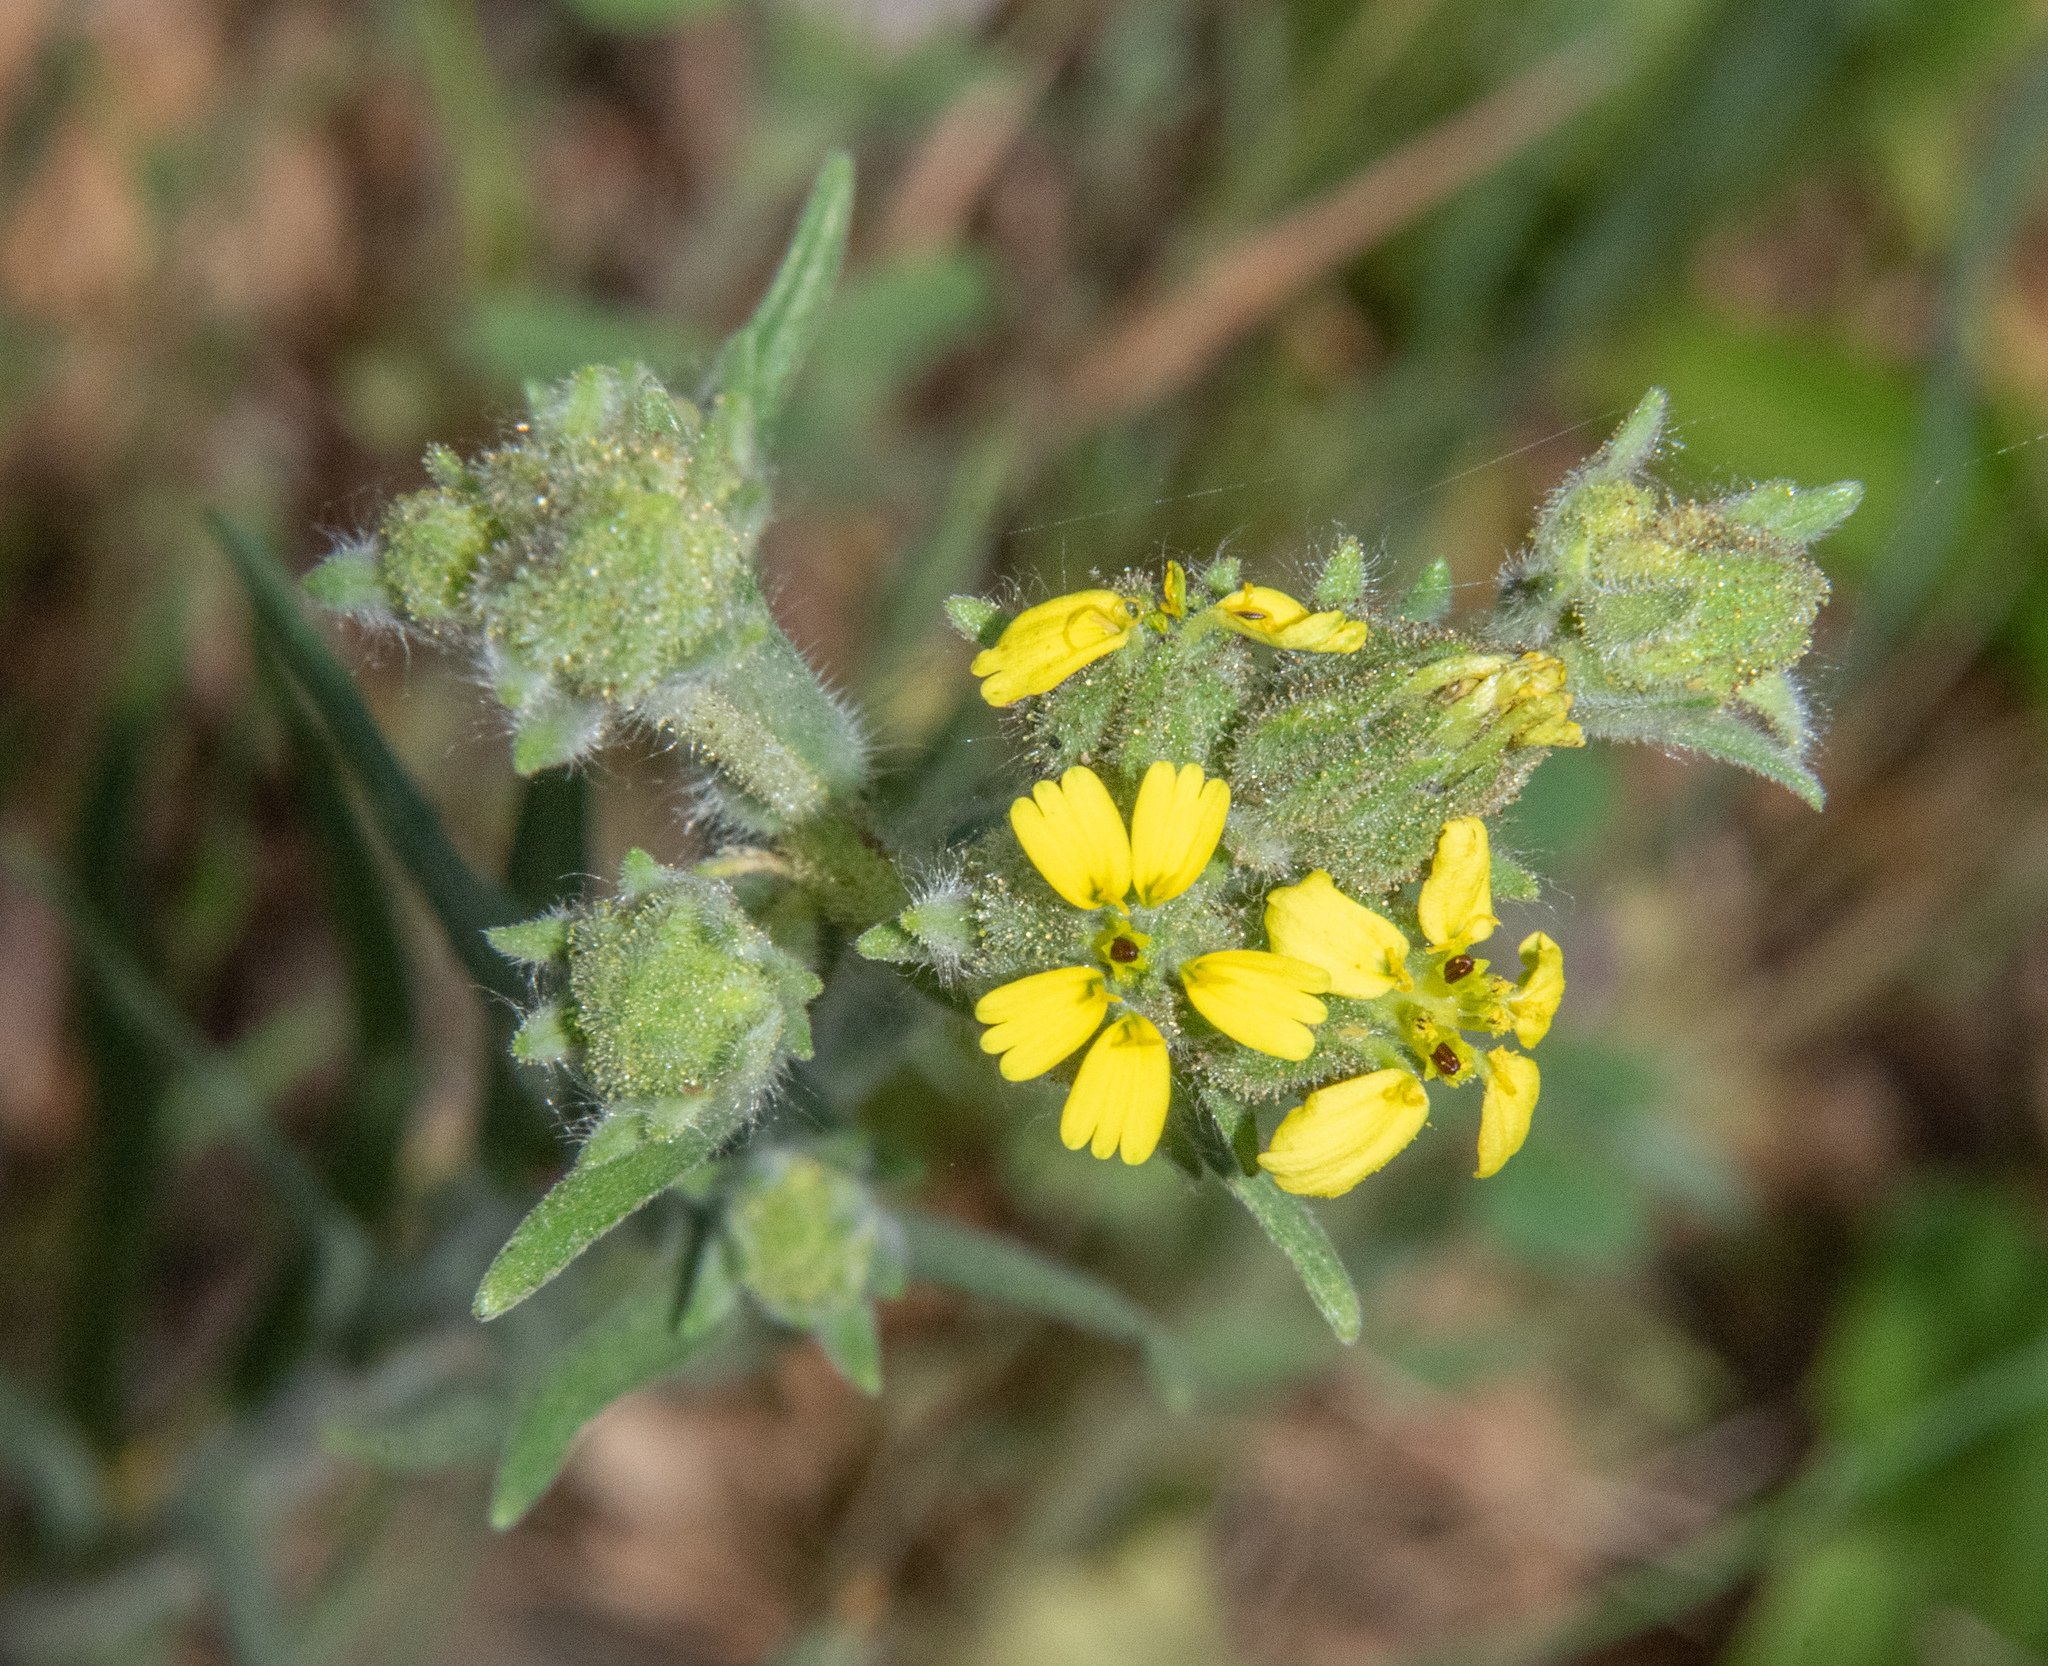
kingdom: Plantae
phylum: Tracheophyta
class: Magnoliopsida
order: Asterales
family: Asteraceae
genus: Madia
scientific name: Madia gracilis
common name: Grassy tarweed
